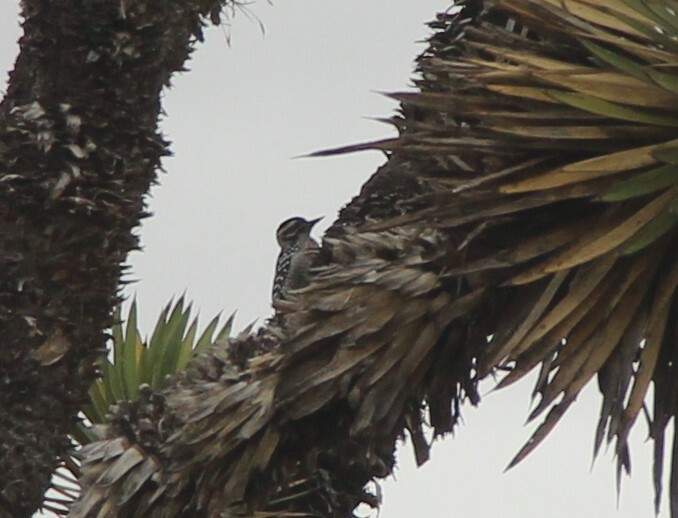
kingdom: Animalia
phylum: Chordata
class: Aves
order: Piciformes
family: Picidae
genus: Dryobates
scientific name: Dryobates scalaris
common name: Ladder-backed woodpecker
